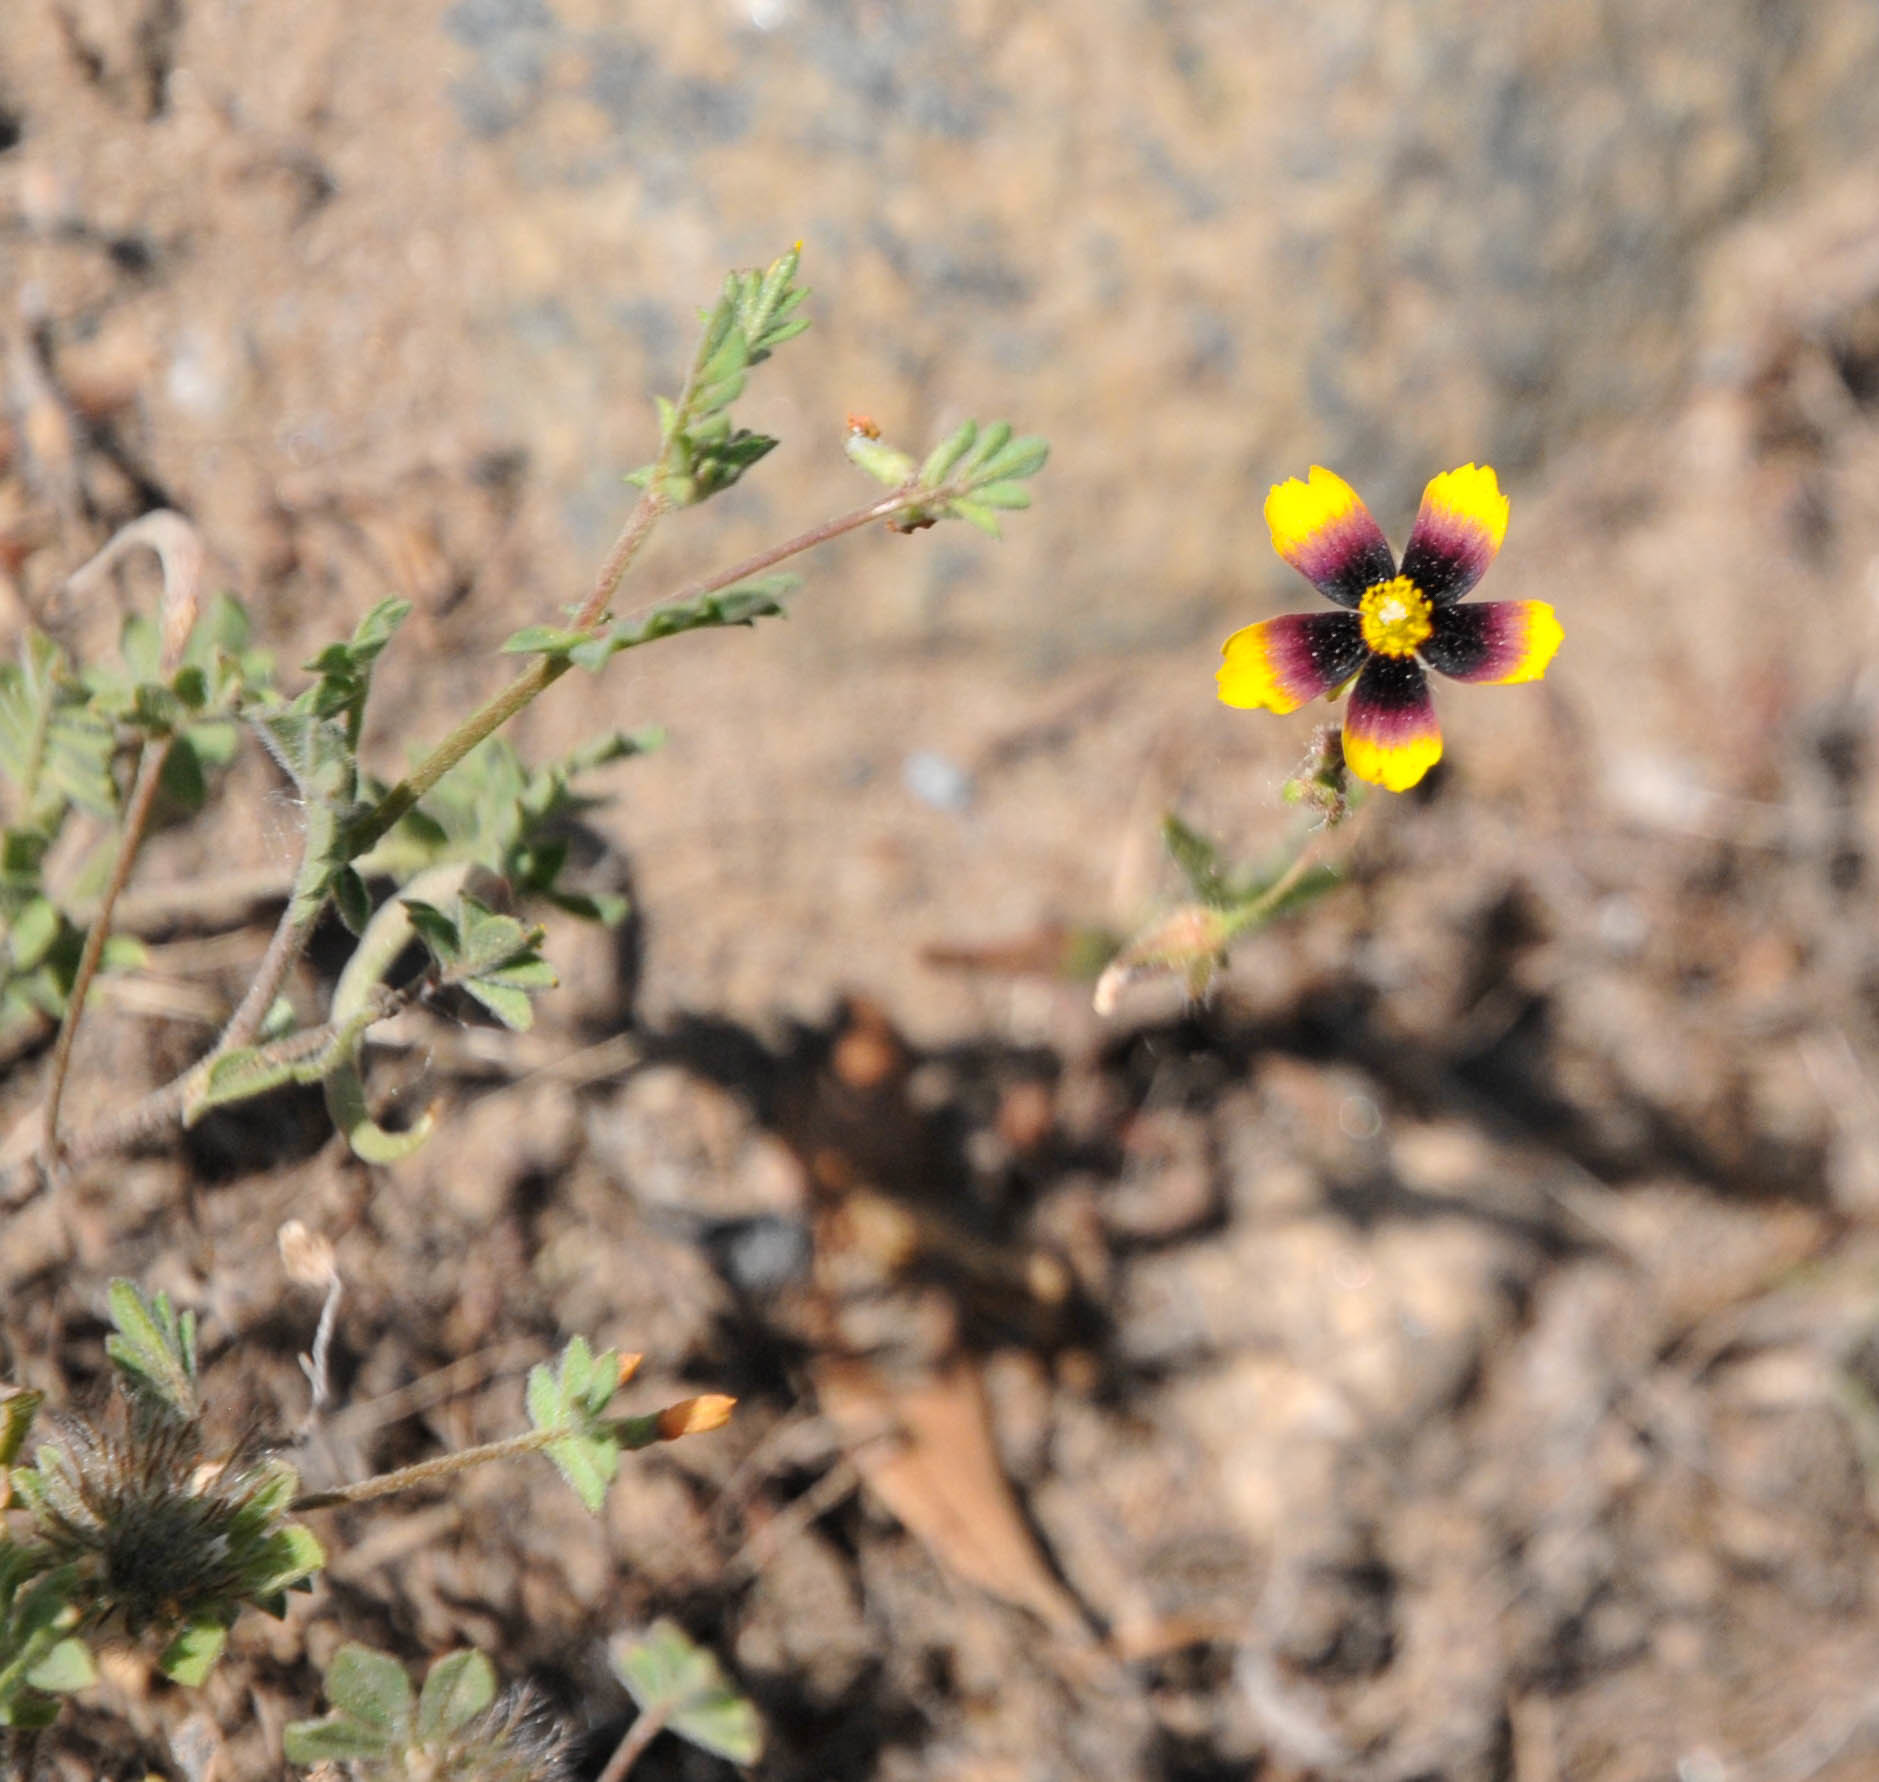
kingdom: Plantae
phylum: Tracheophyta
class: Magnoliopsida
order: Malvales
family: Cistaceae
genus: Tuberaria
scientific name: Tuberaria guttata
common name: Spotted rock-rose
